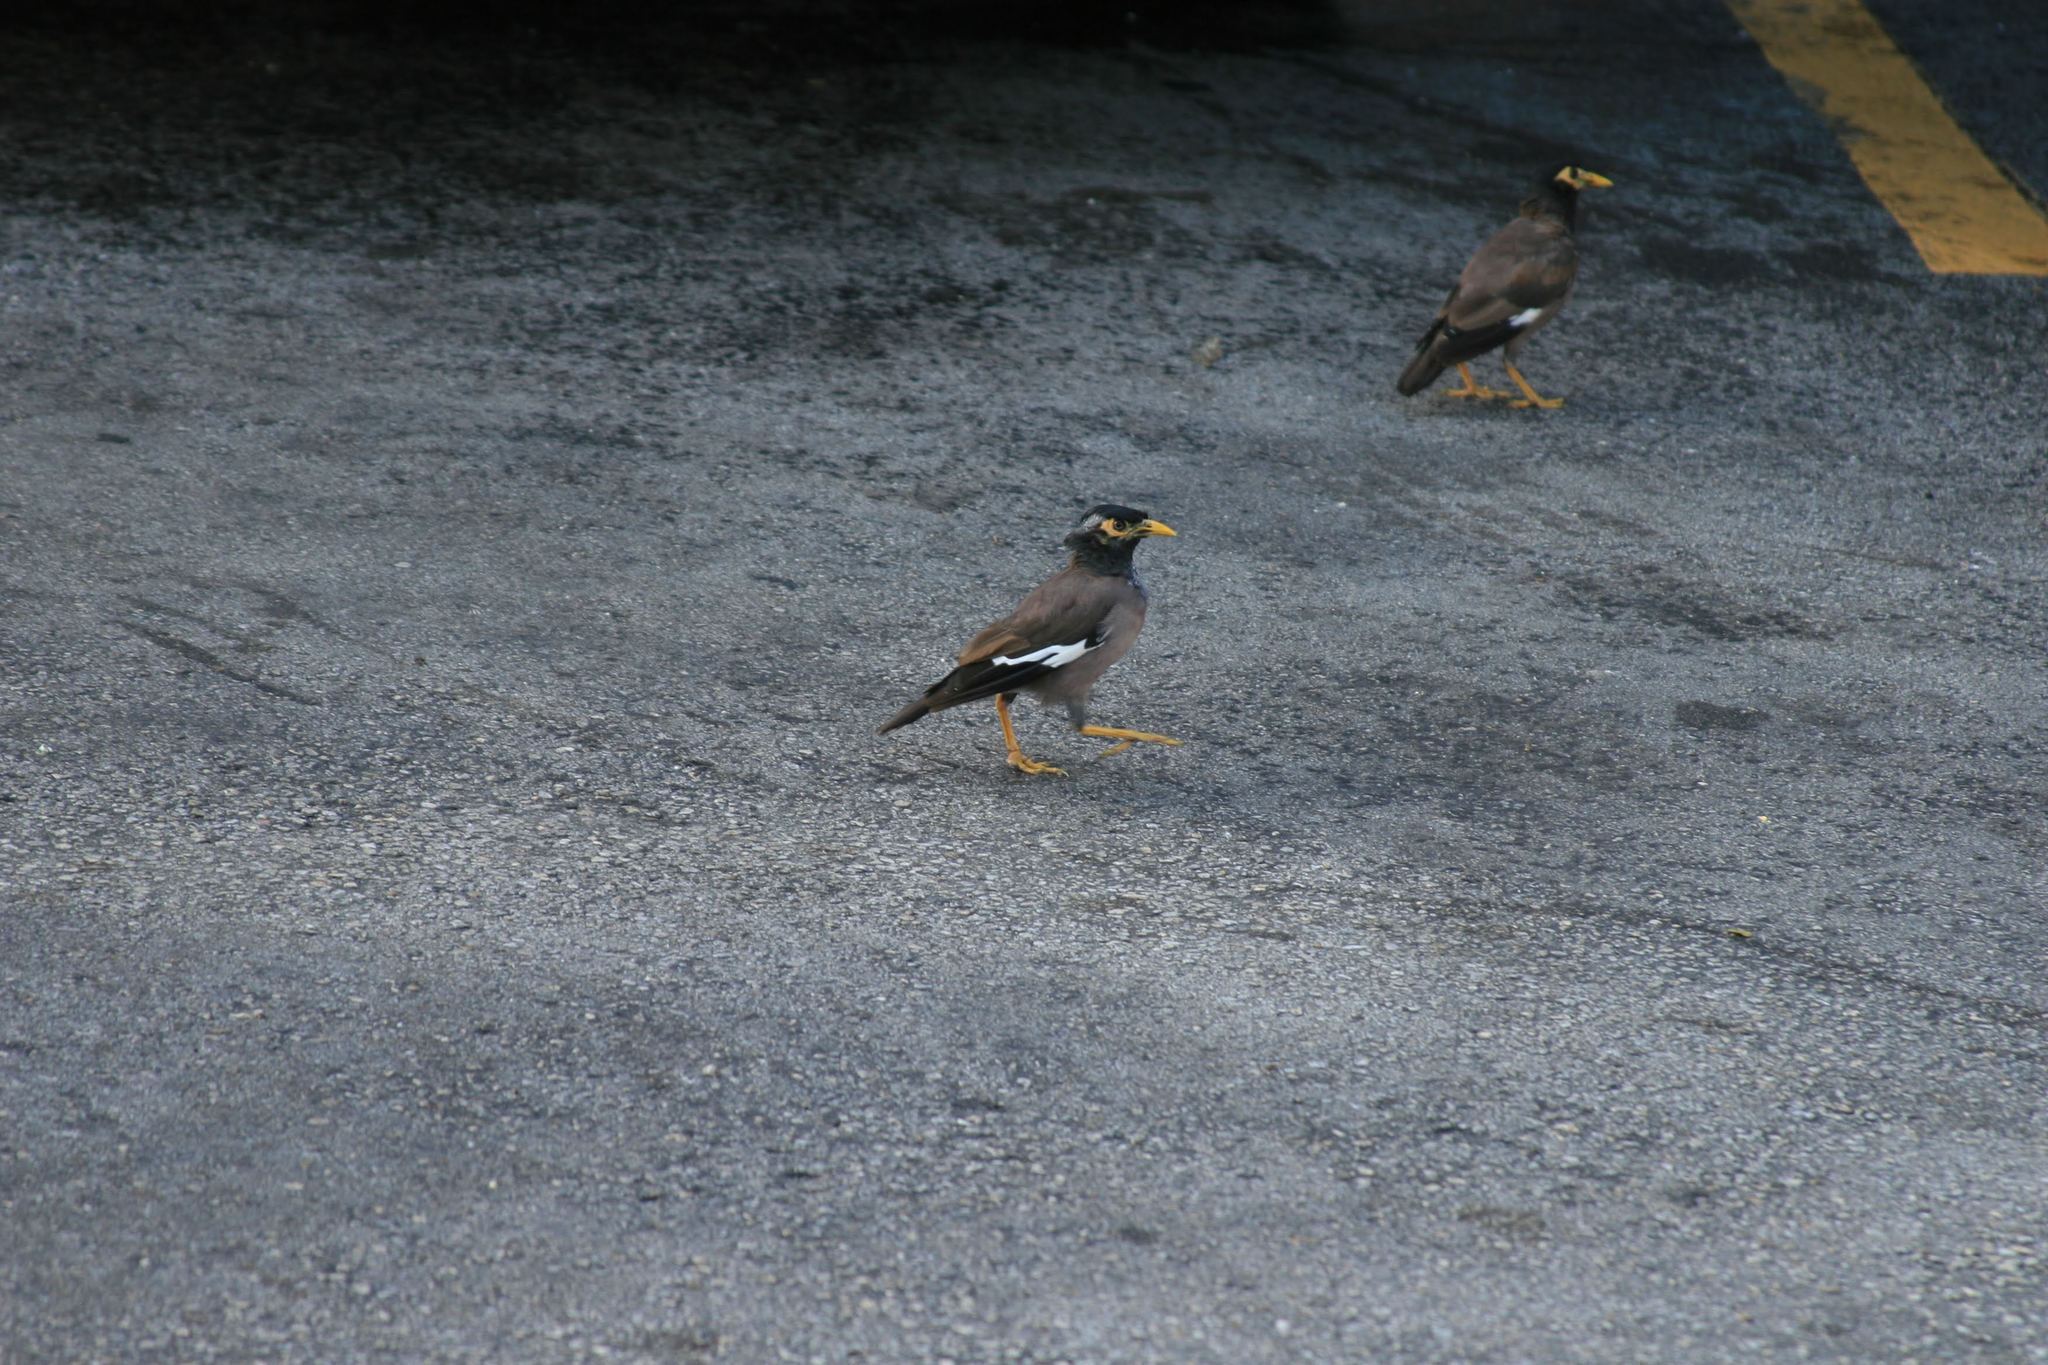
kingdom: Animalia
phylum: Chordata
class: Aves
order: Passeriformes
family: Sturnidae
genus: Acridotheres
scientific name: Acridotheres tristis
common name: Common myna
